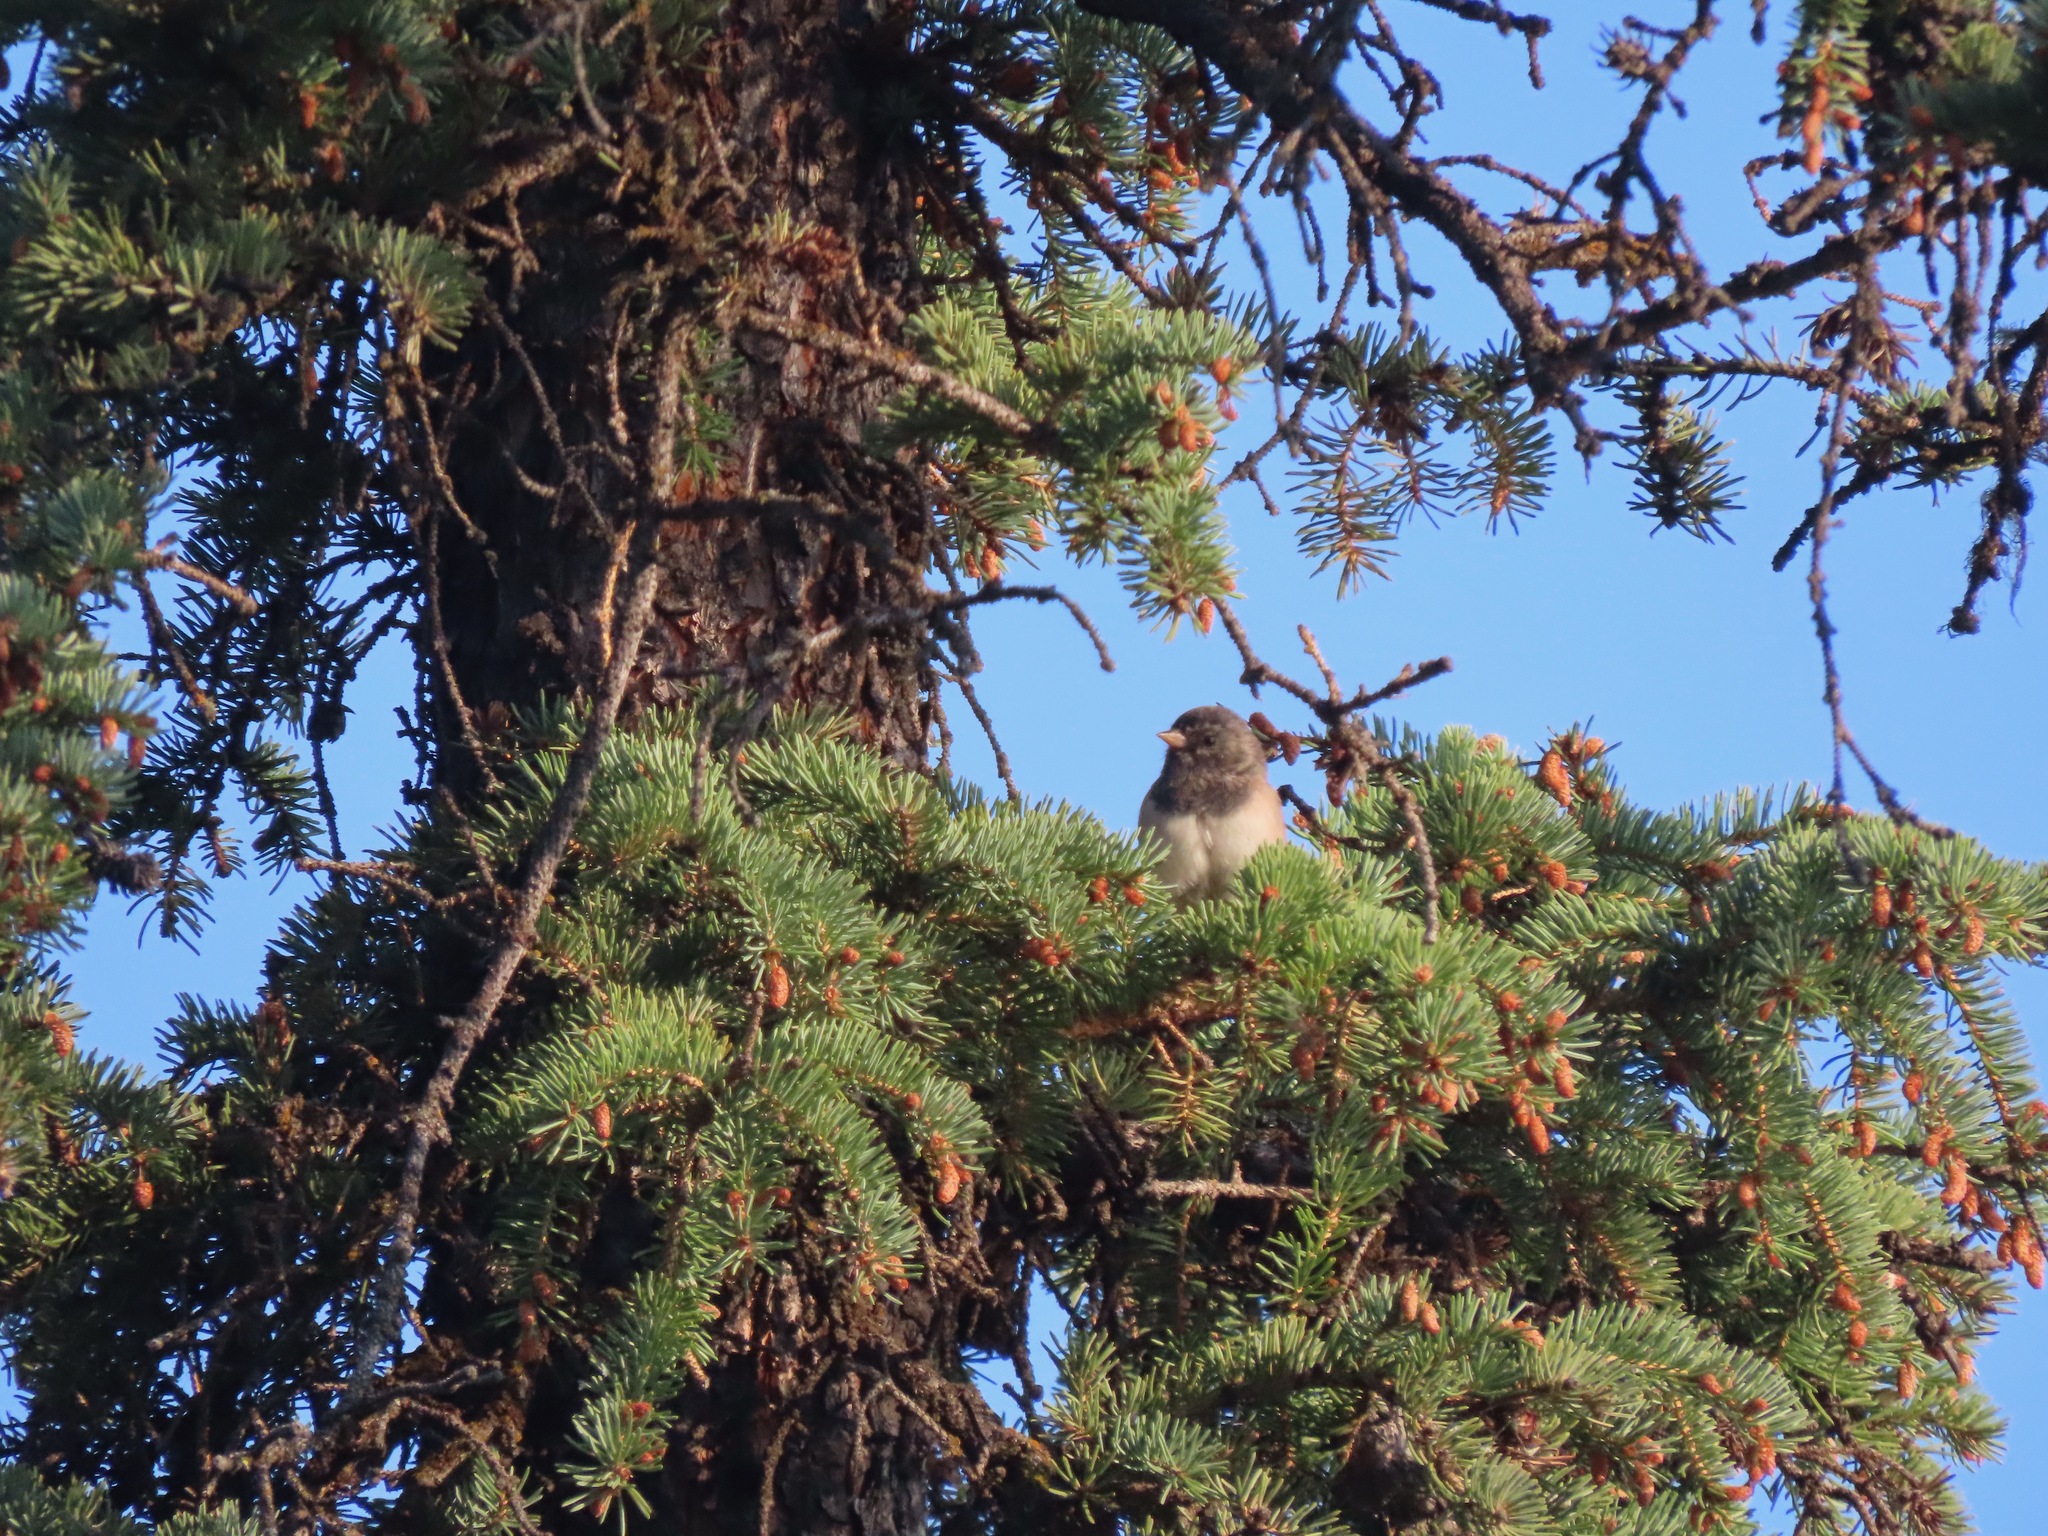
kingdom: Animalia
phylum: Chordata
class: Aves
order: Passeriformes
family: Passerellidae
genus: Junco
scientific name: Junco hyemalis
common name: Dark-eyed junco
